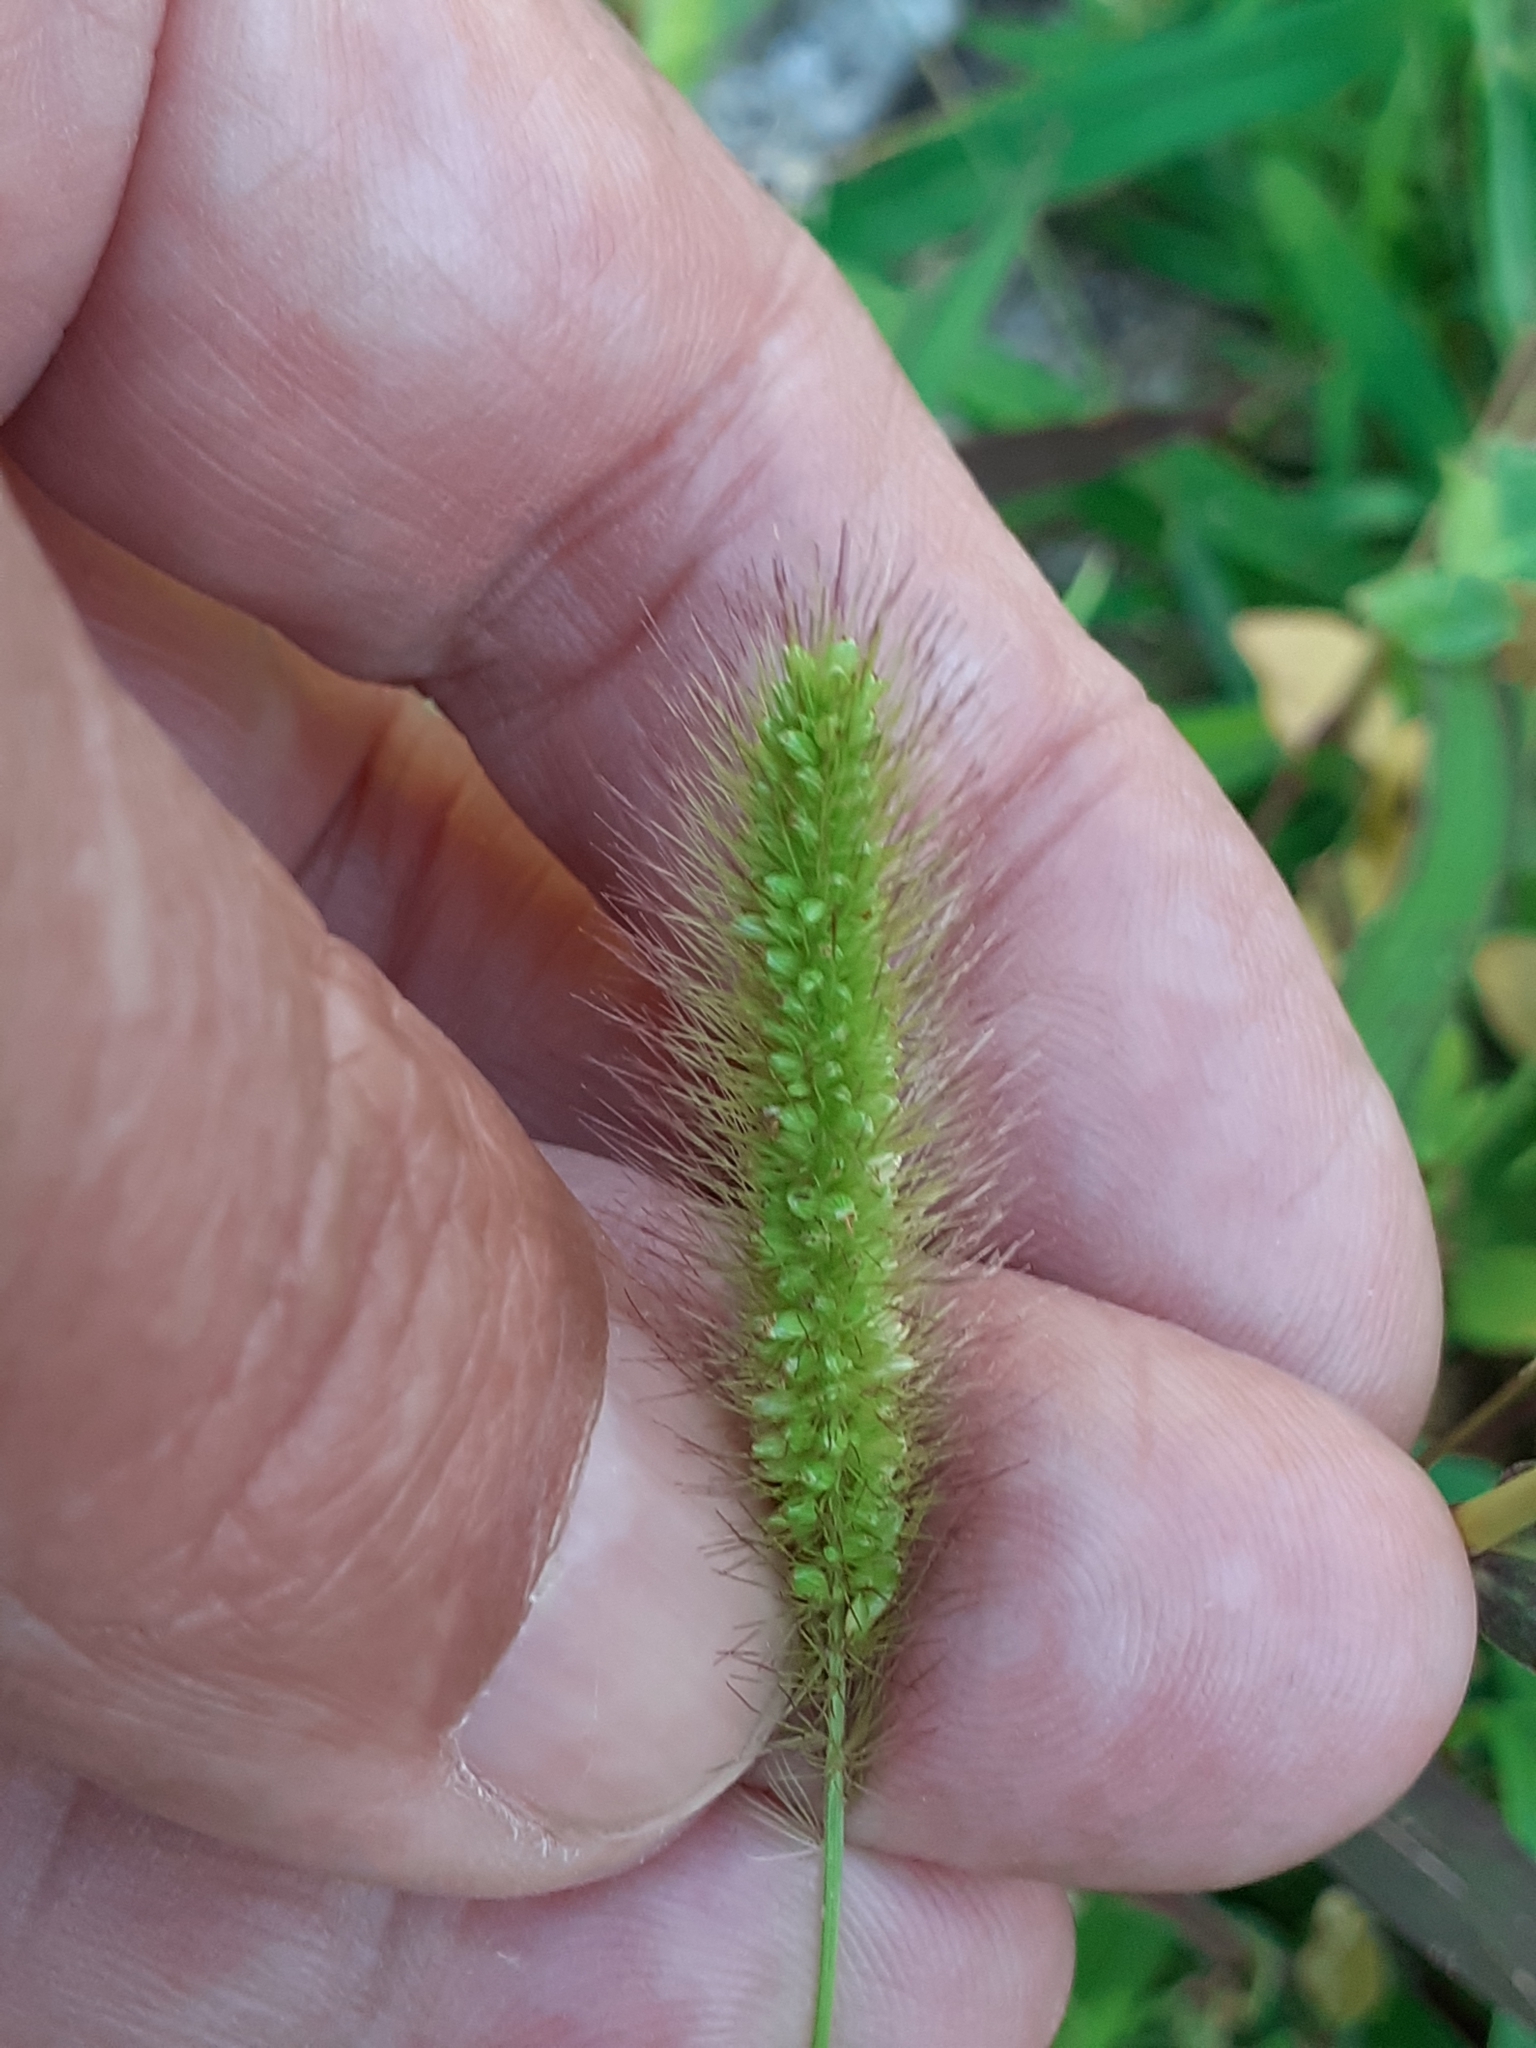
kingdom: Plantae
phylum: Tracheophyta
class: Liliopsida
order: Poales
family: Poaceae
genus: Setaria
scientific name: Setaria viridis
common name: Green bristlegrass
